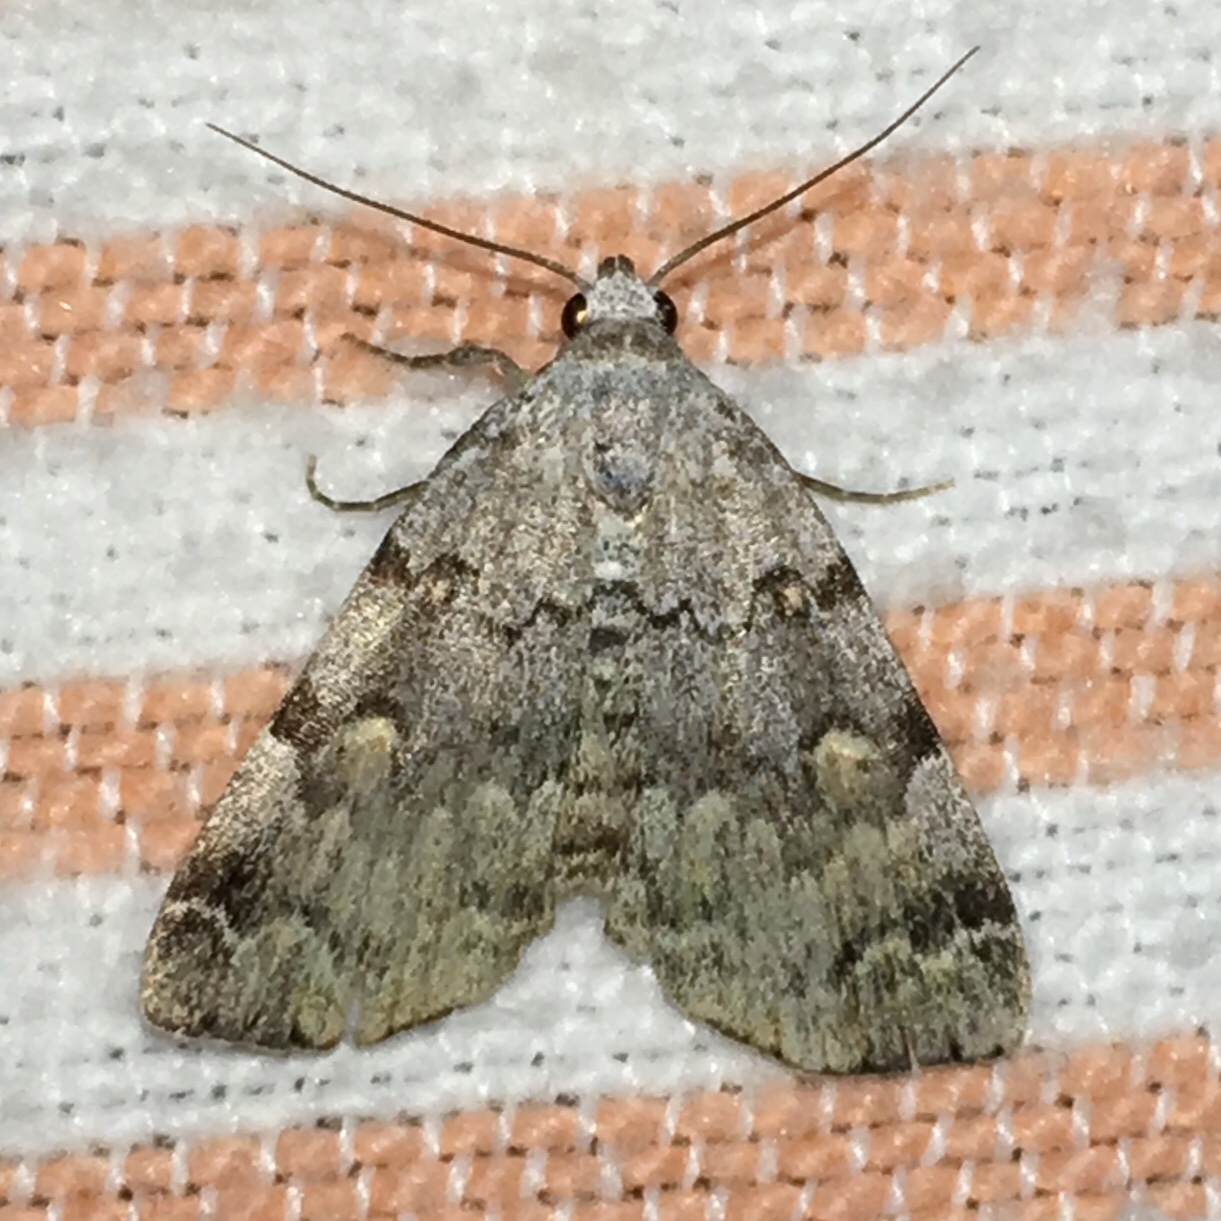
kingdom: Animalia
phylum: Arthropoda
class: Insecta
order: Lepidoptera
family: Erebidae
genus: Idia
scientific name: Idia americalis
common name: American idia moth
